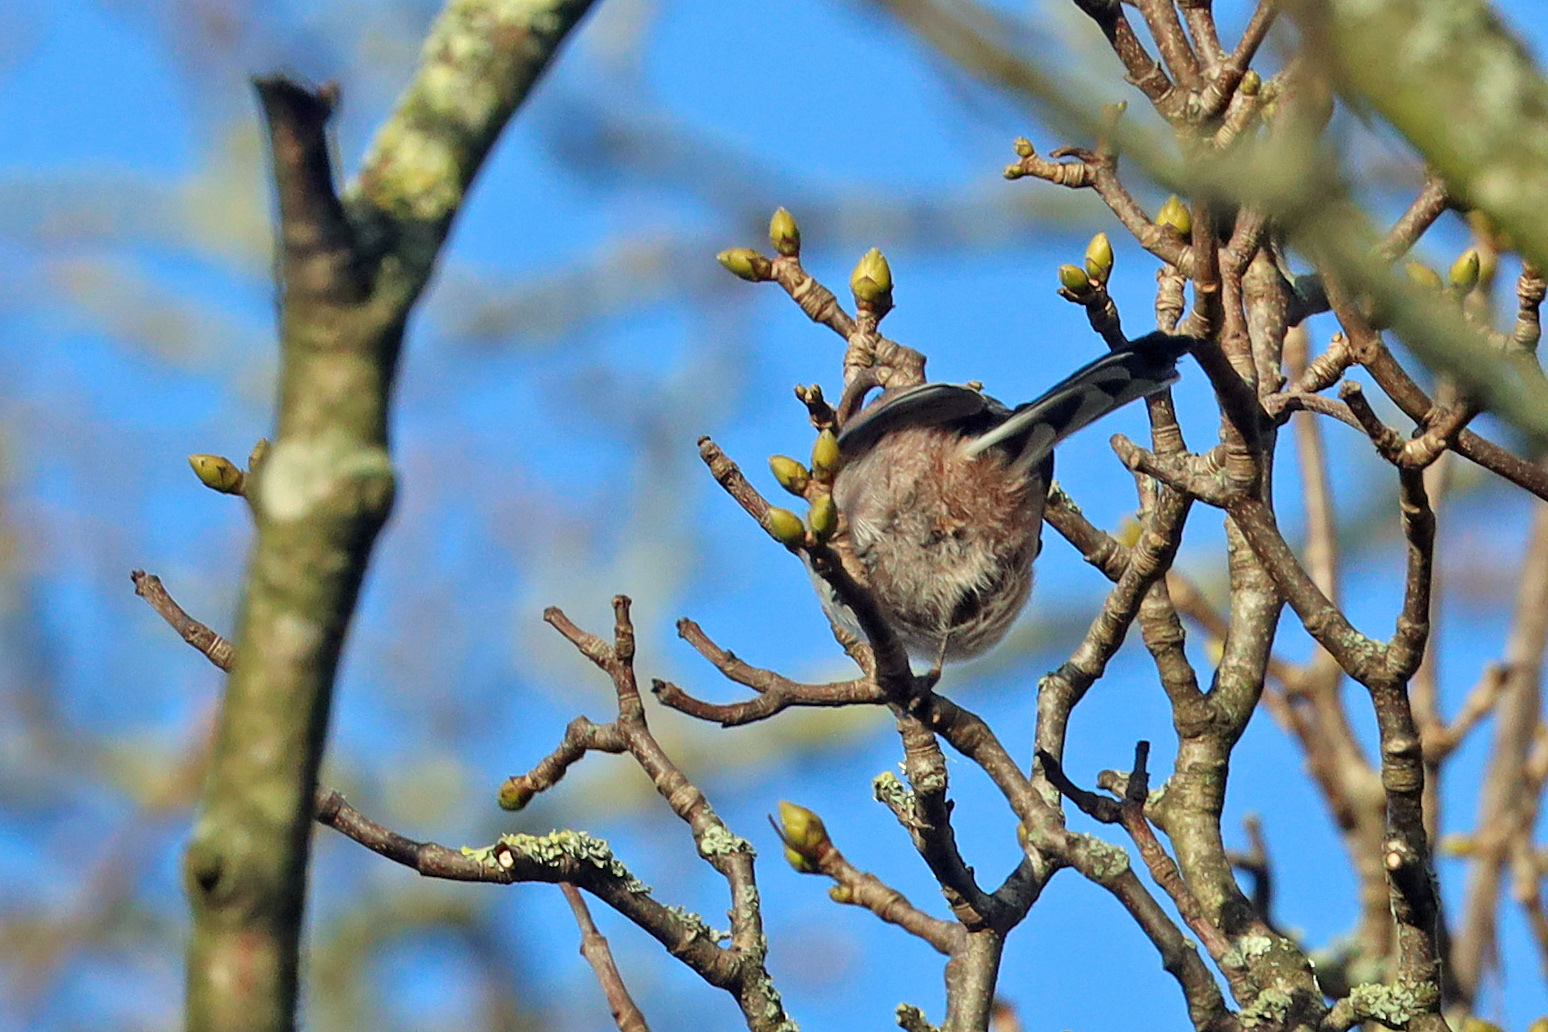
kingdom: Animalia
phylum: Chordata
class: Aves
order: Passeriformes
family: Aegithalidae
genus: Aegithalos
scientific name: Aegithalos caudatus
